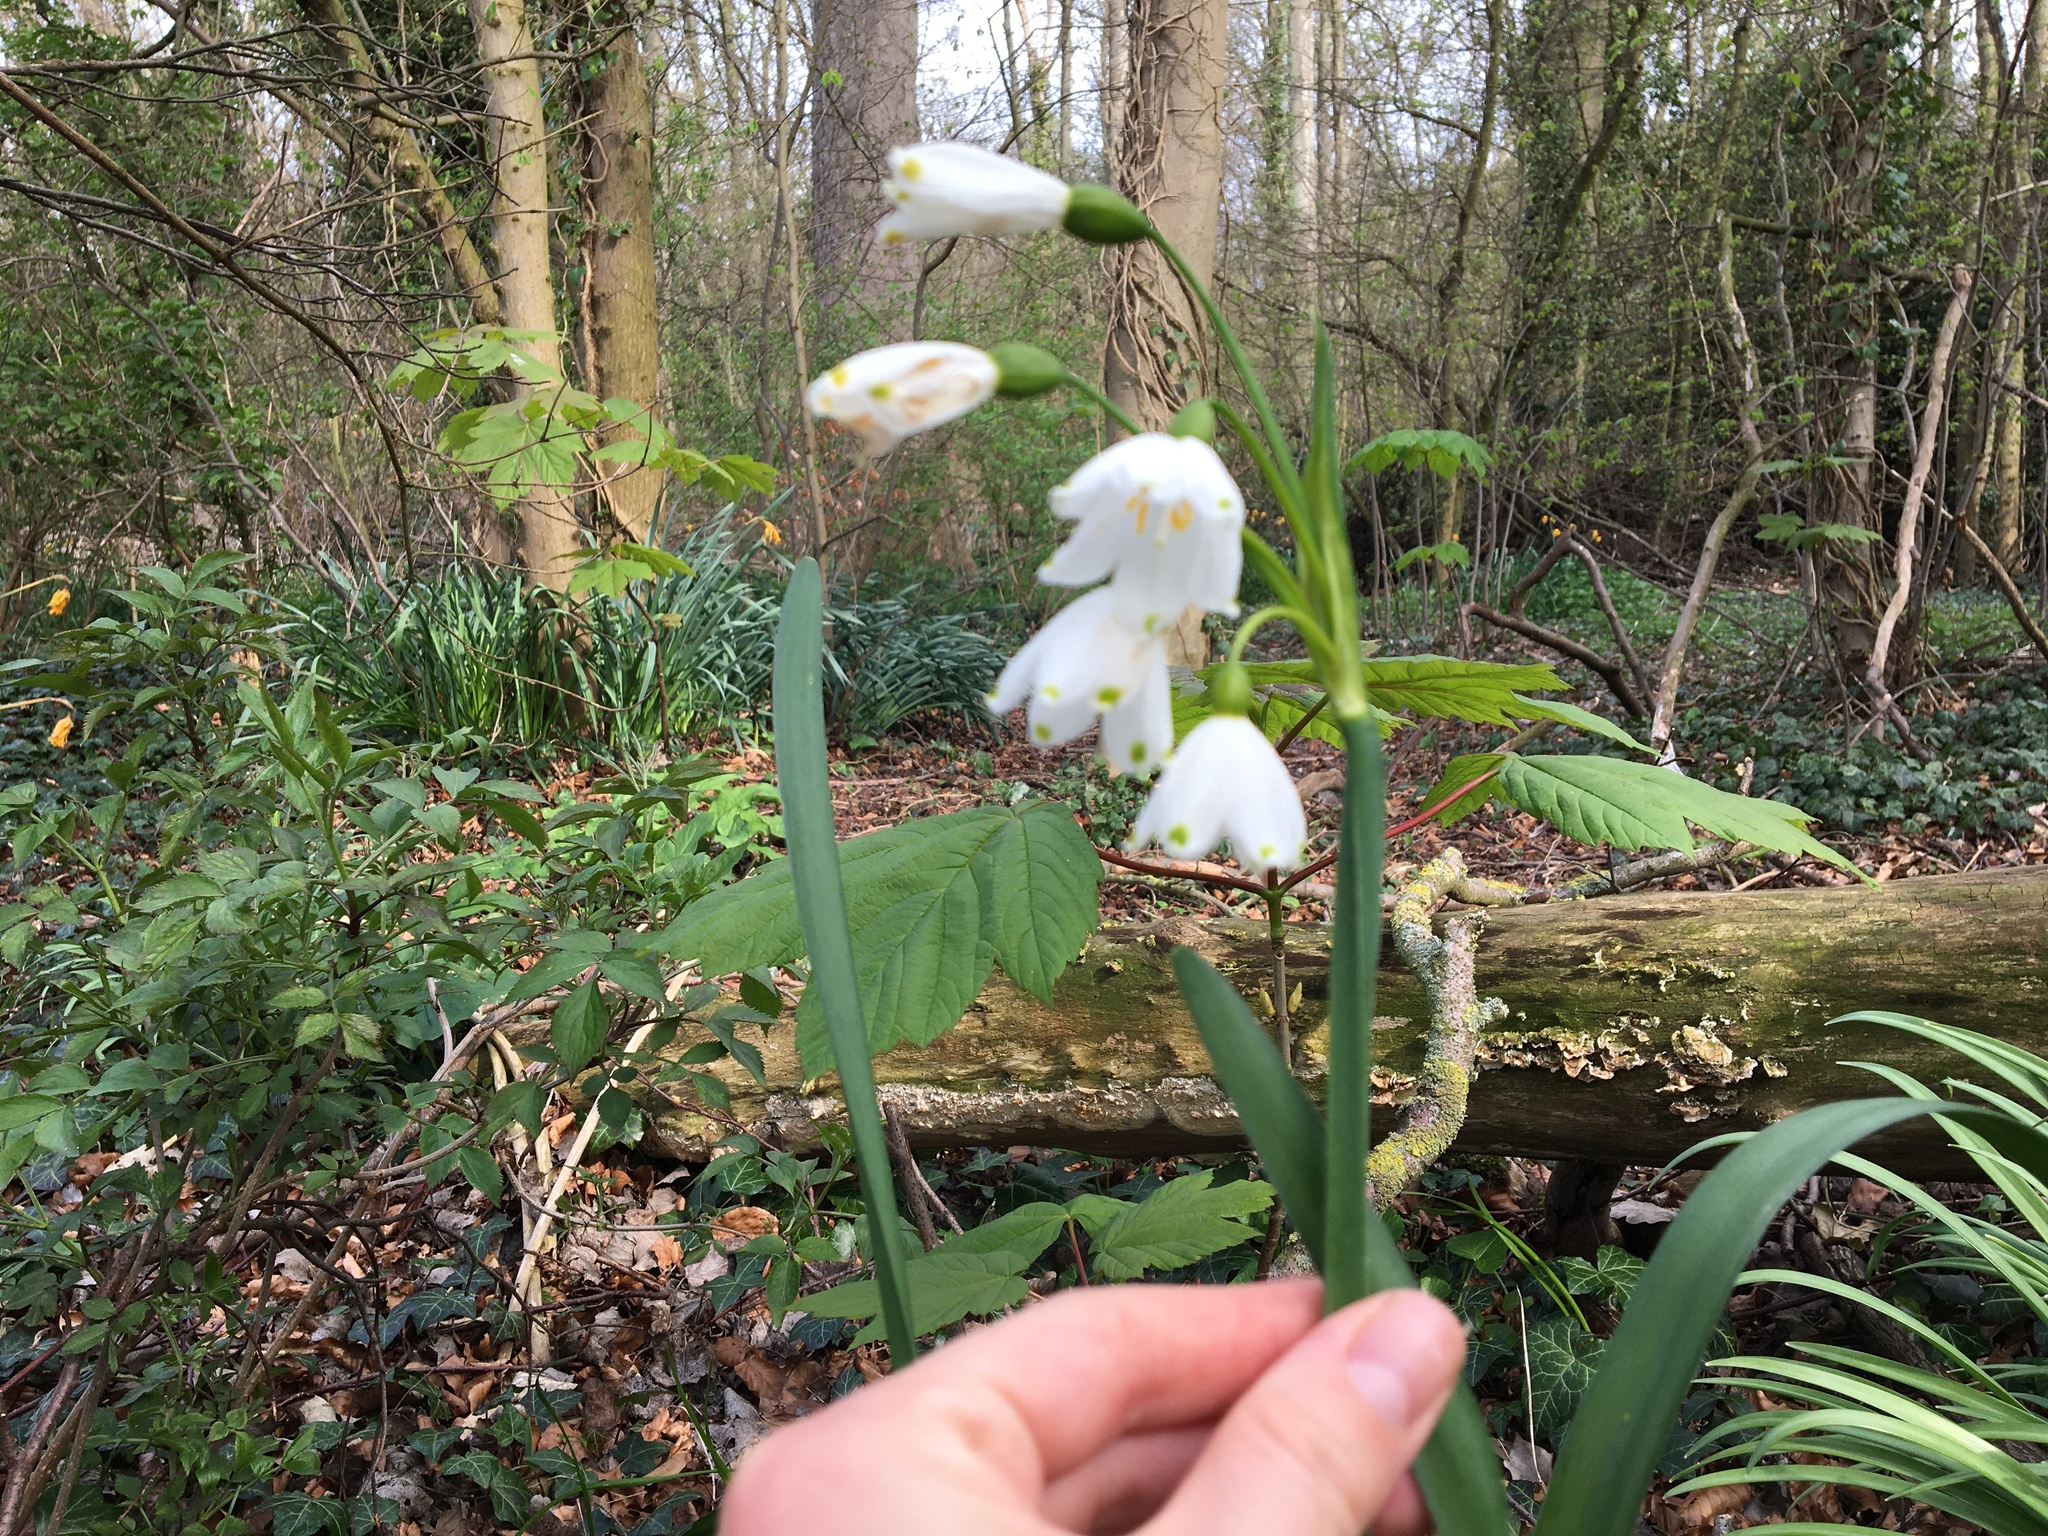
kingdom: Plantae
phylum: Tracheophyta
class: Liliopsida
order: Asparagales
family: Amaryllidaceae
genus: Leucojum
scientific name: Leucojum aestivum
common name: Summer snowflake
